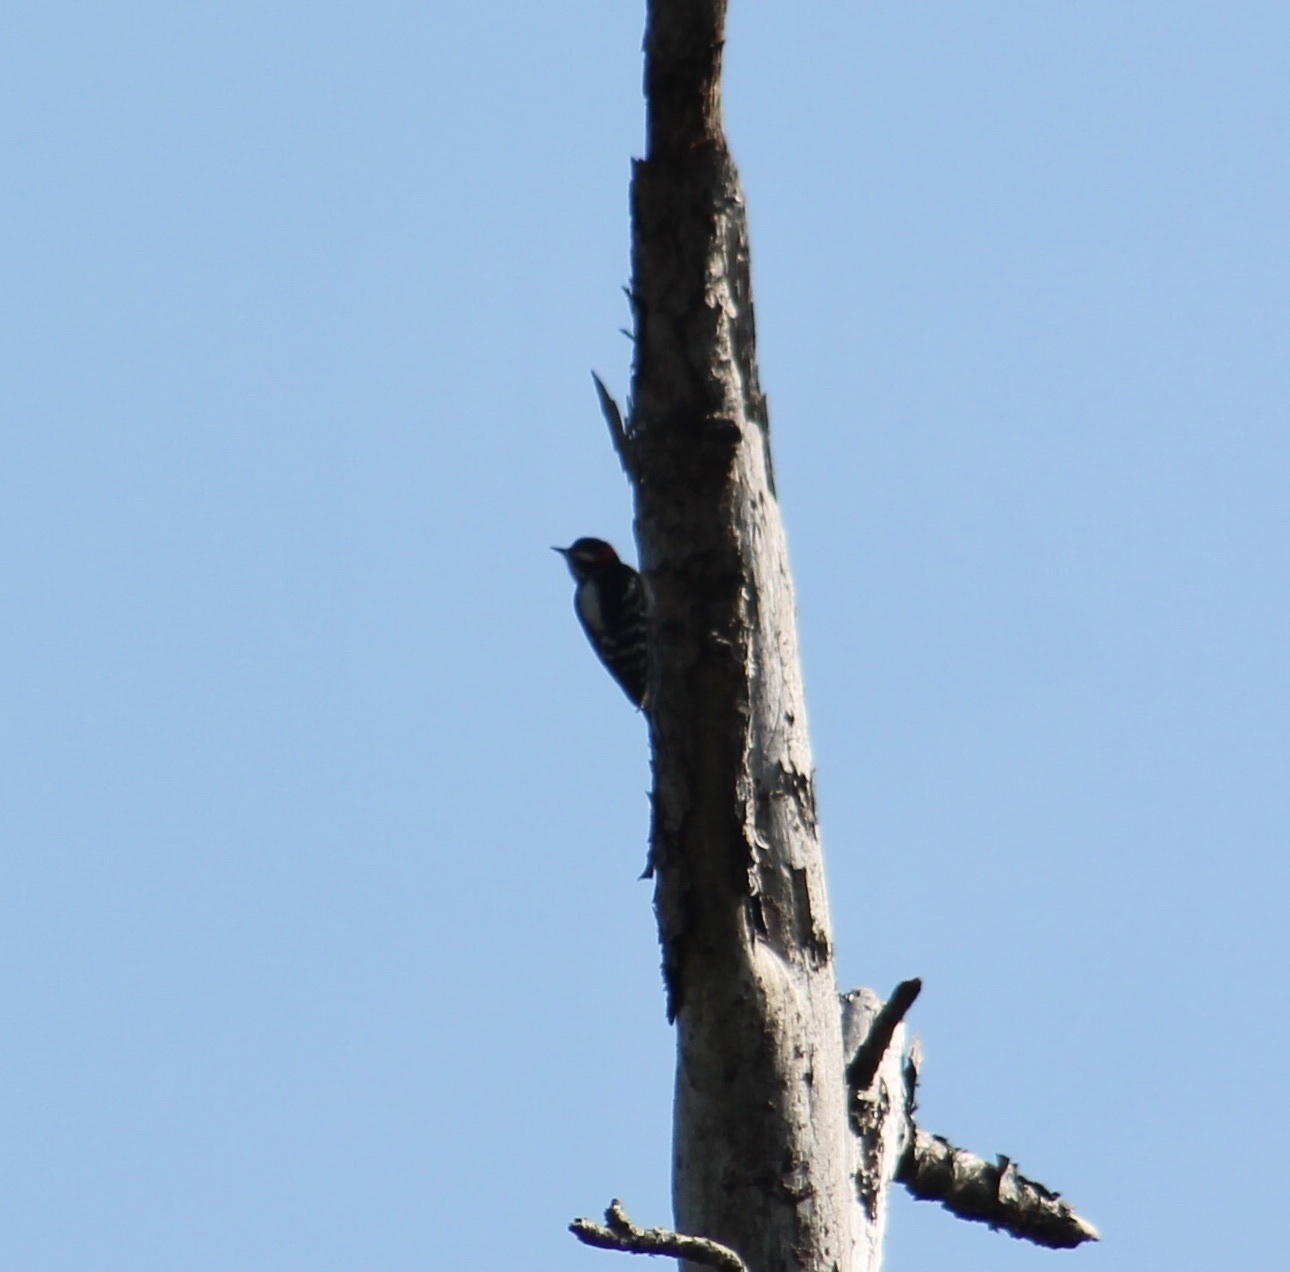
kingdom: Animalia
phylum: Chordata
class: Aves
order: Piciformes
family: Picidae
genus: Dryobates
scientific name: Dryobates pubescens
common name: Downy woodpecker
